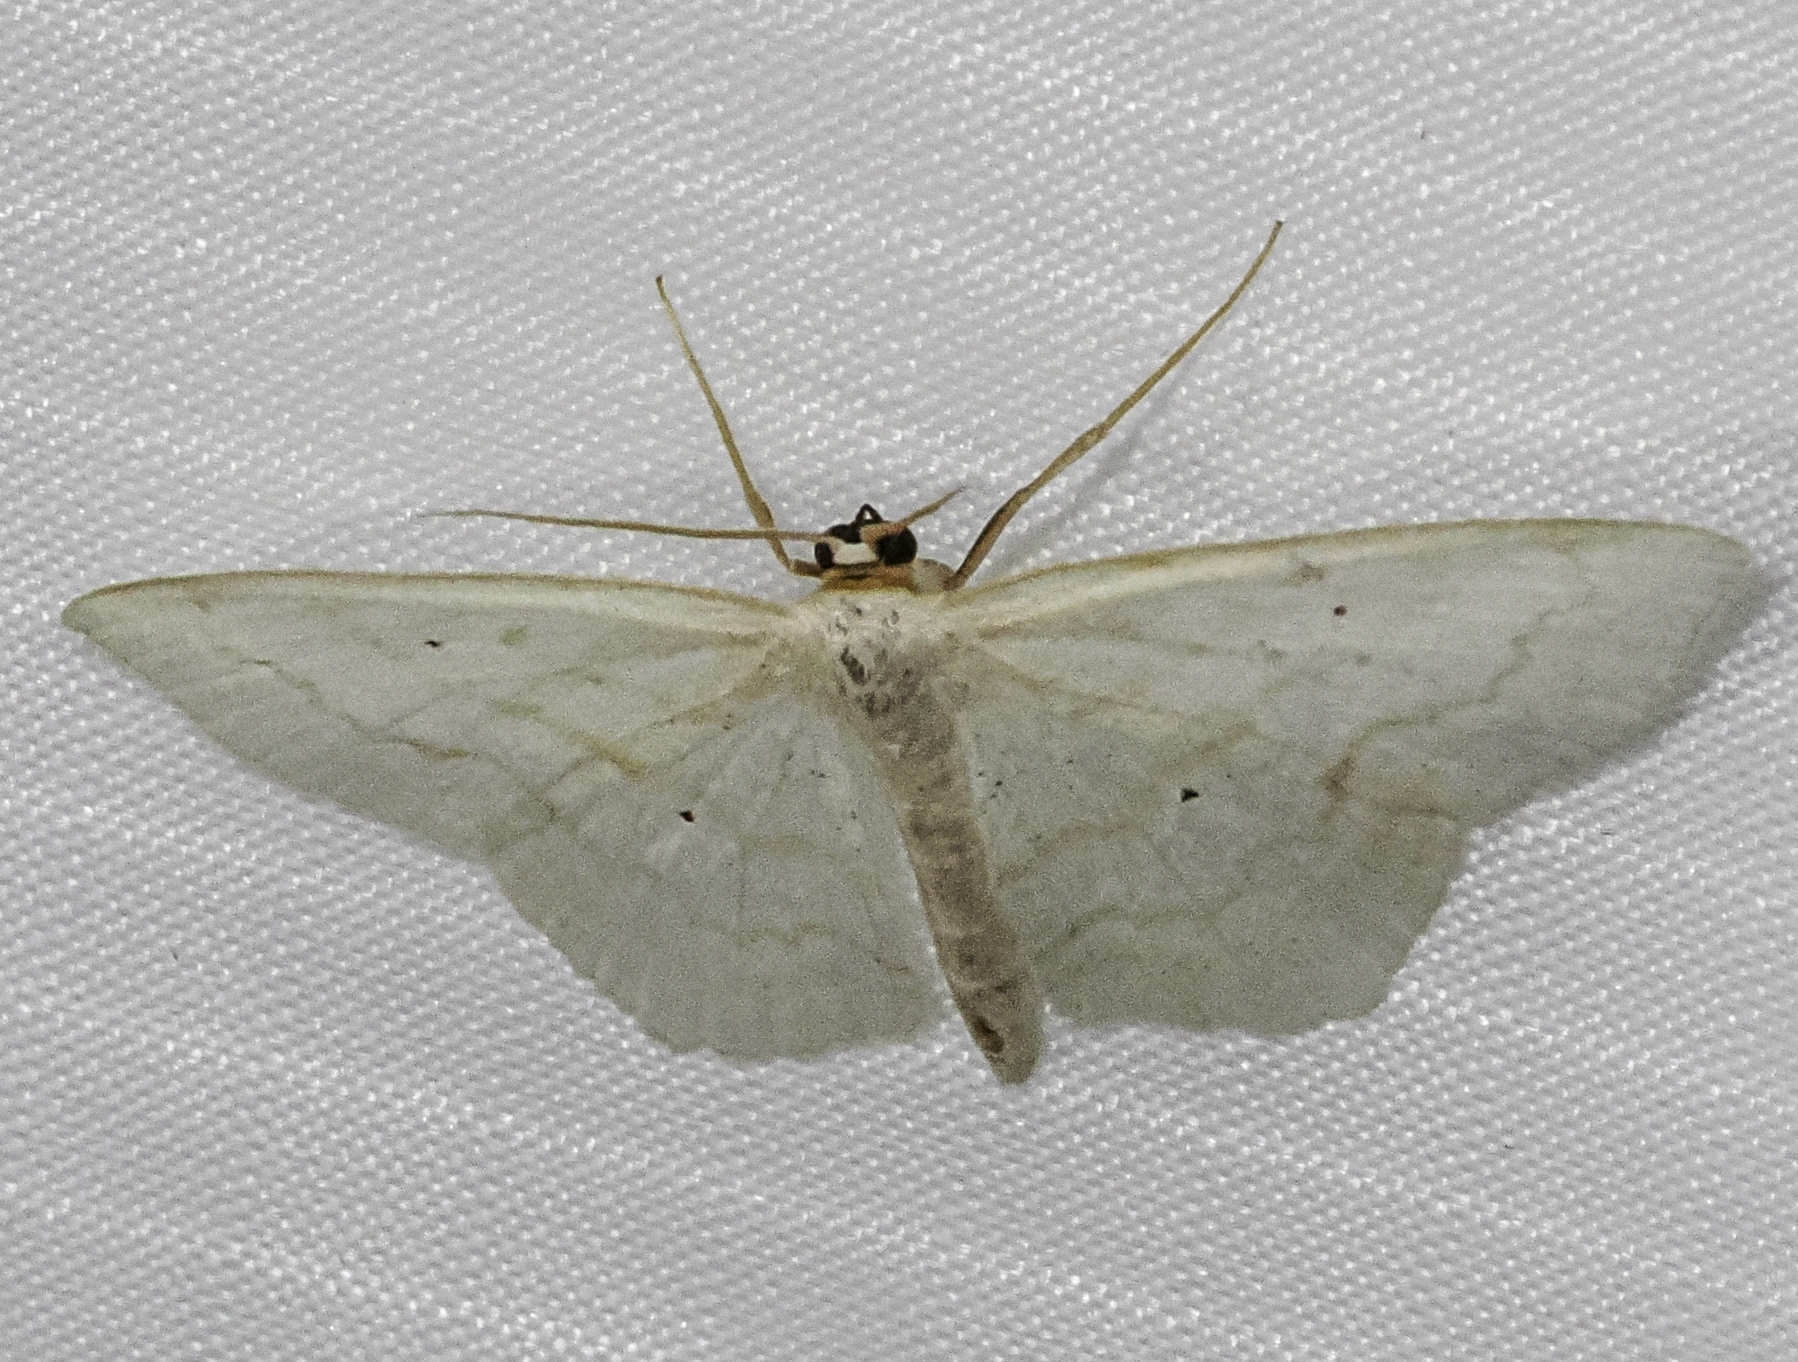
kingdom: Animalia
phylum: Arthropoda
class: Insecta
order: Lepidoptera
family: Geometridae
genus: Scopula
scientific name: Scopula limboundata
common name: Large lace border
